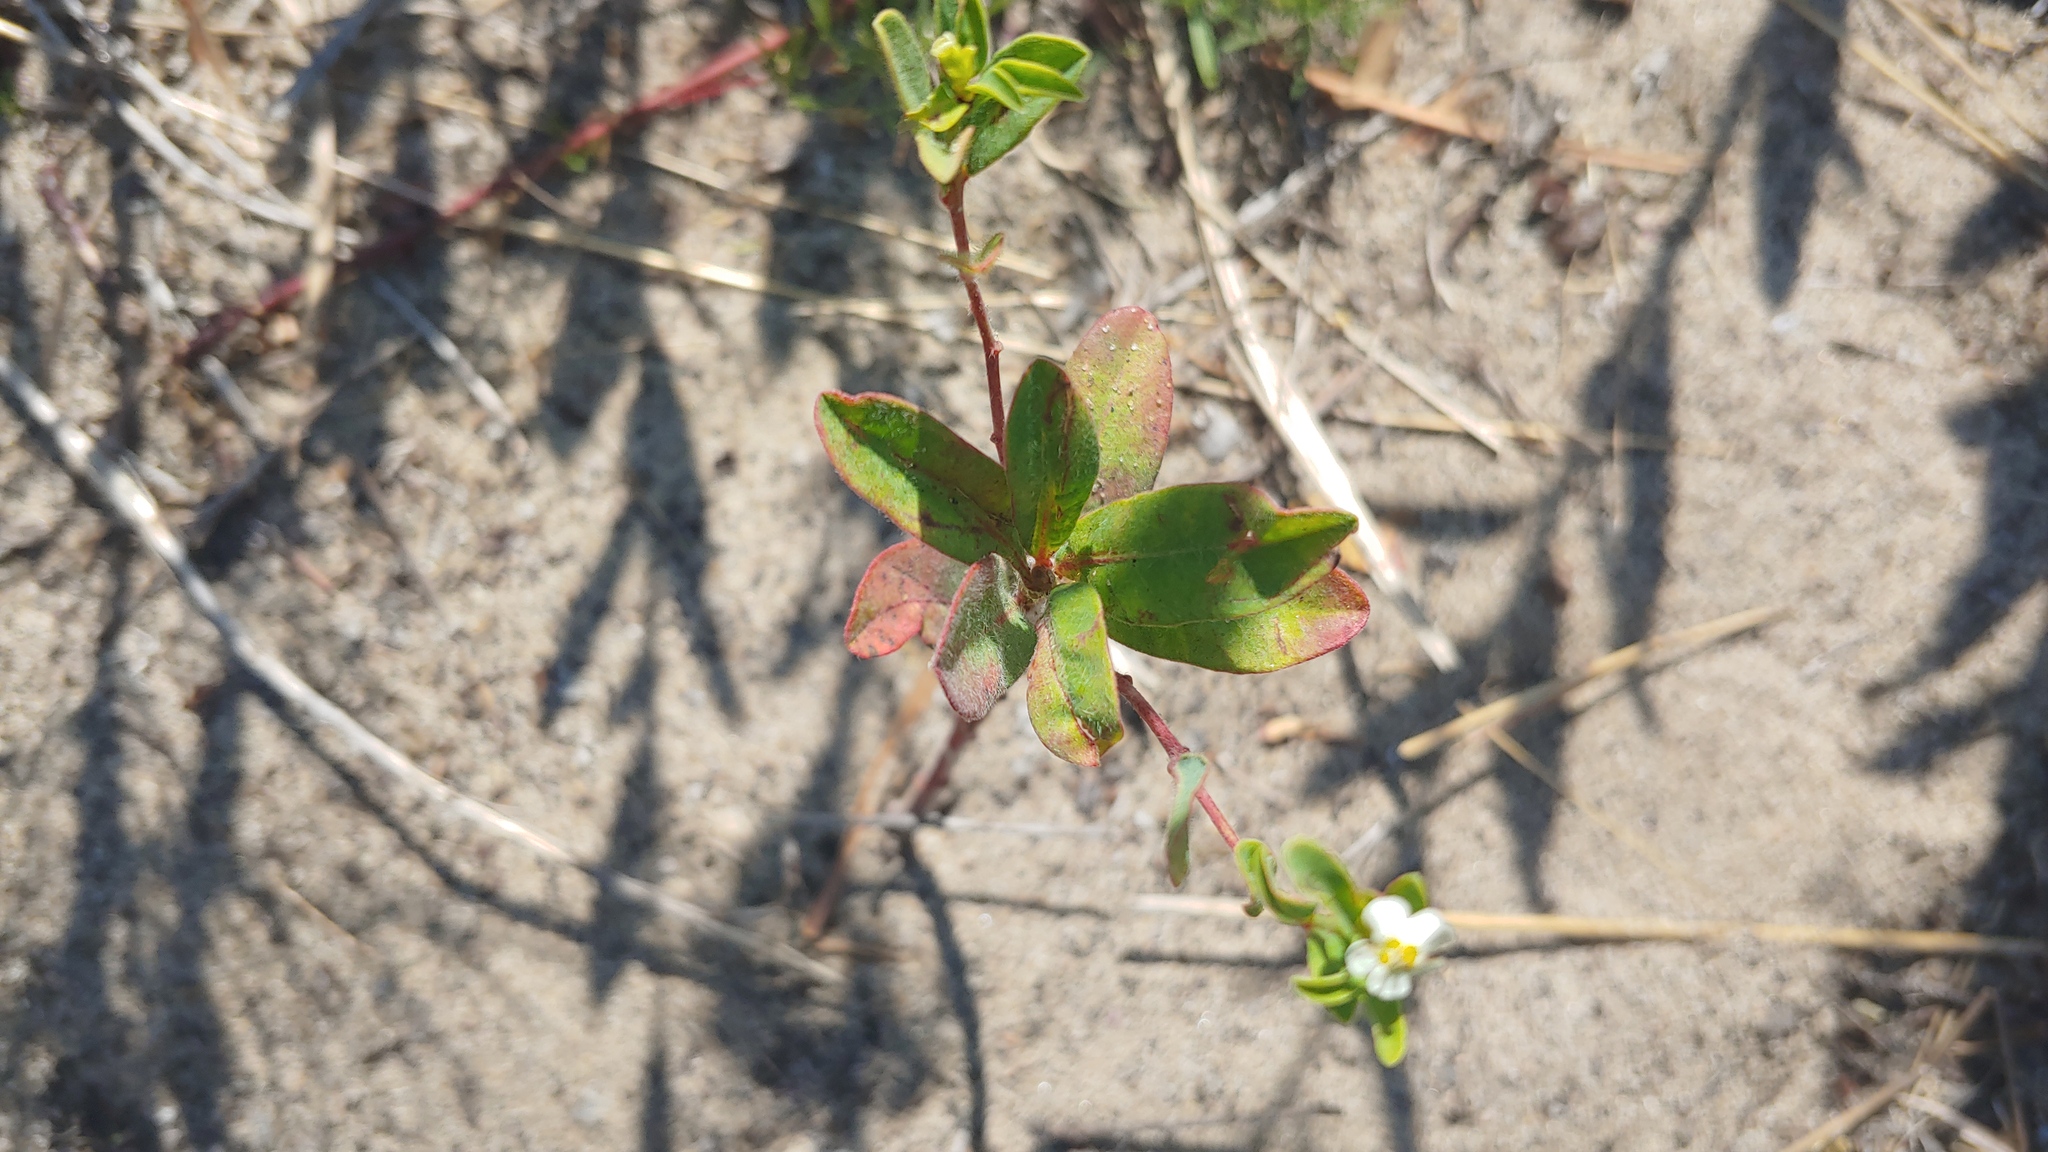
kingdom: Plantae
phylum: Tracheophyta
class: Magnoliopsida
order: Malpighiales
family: Euphorbiaceae
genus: Euphorbia
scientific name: Euphorbia corollata
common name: Flowering spurge
